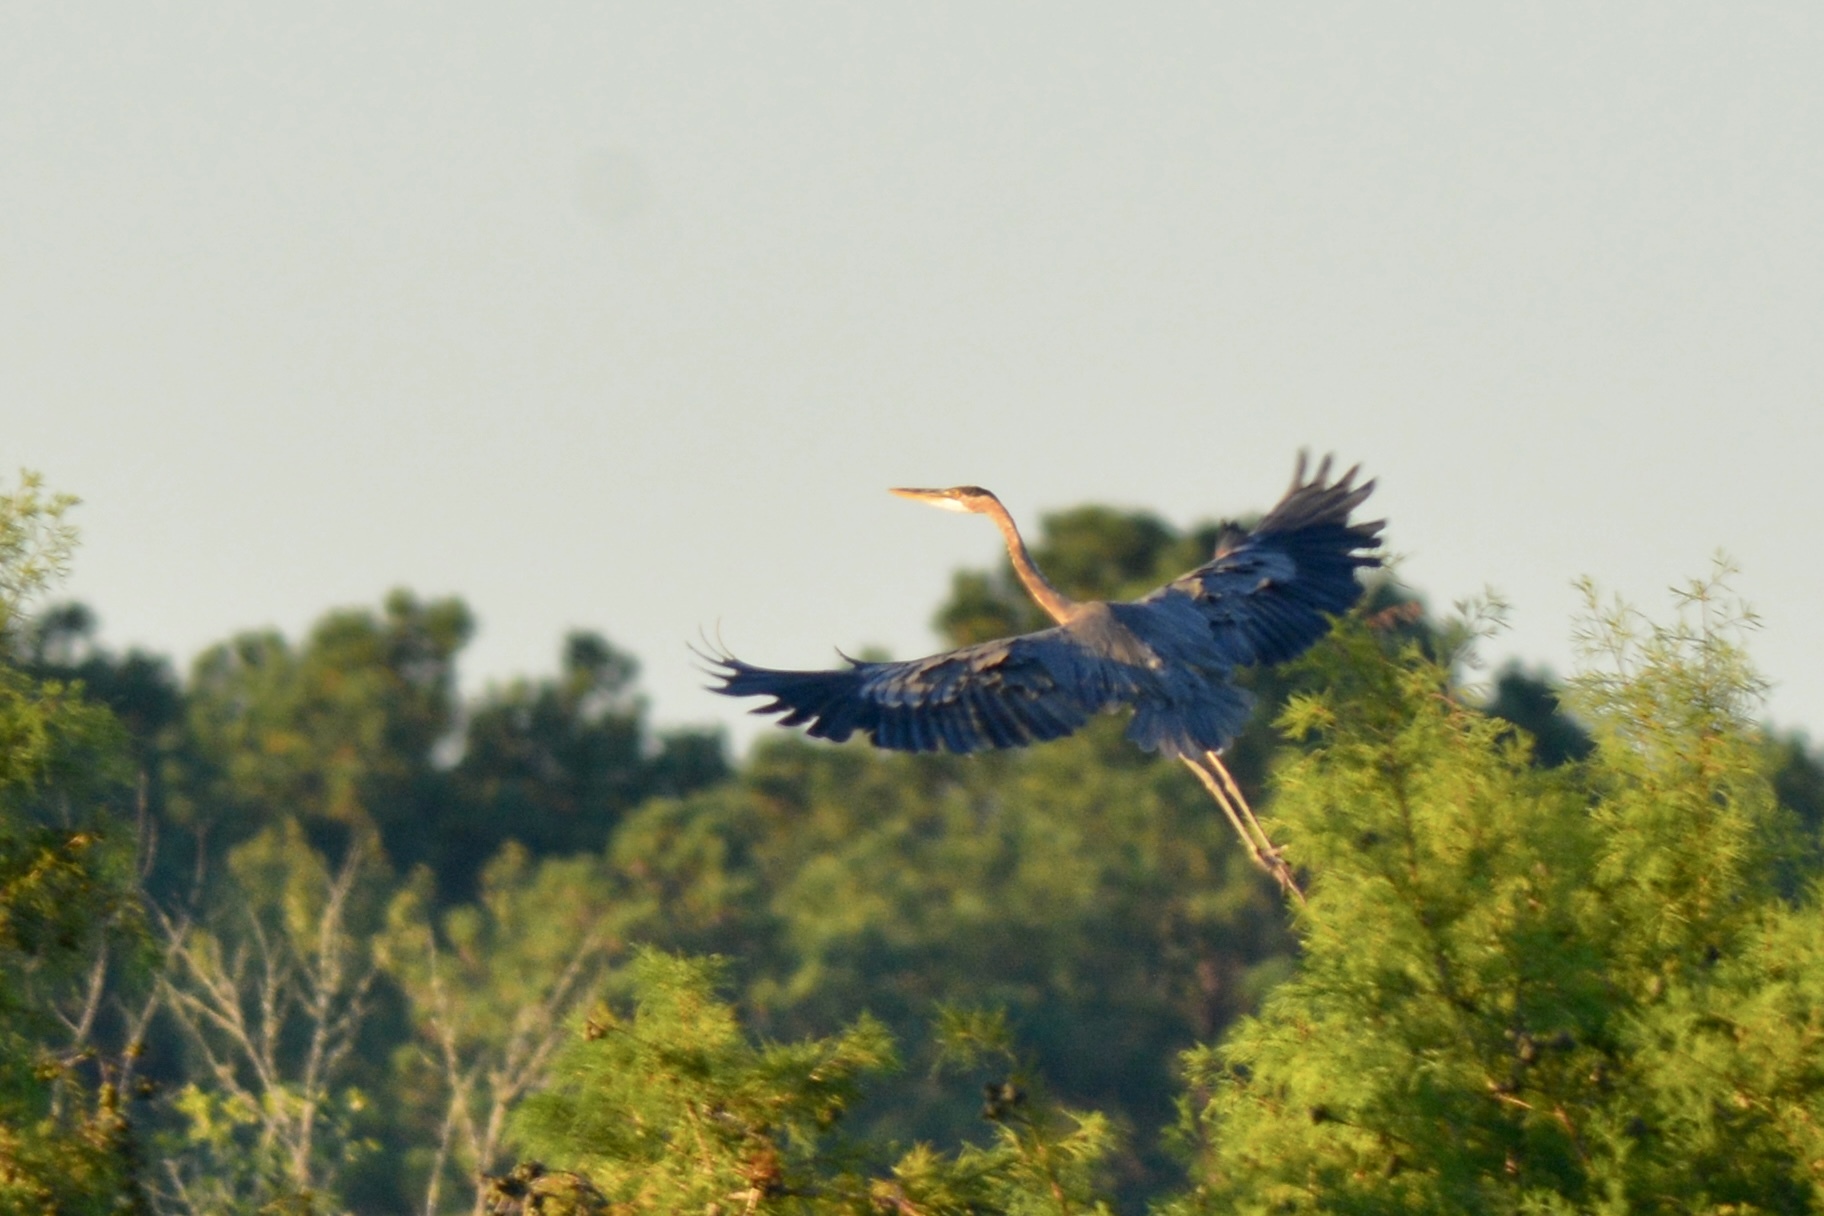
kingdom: Animalia
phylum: Chordata
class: Aves
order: Pelecaniformes
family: Ardeidae
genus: Ardea
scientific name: Ardea herodias
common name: Great blue heron
